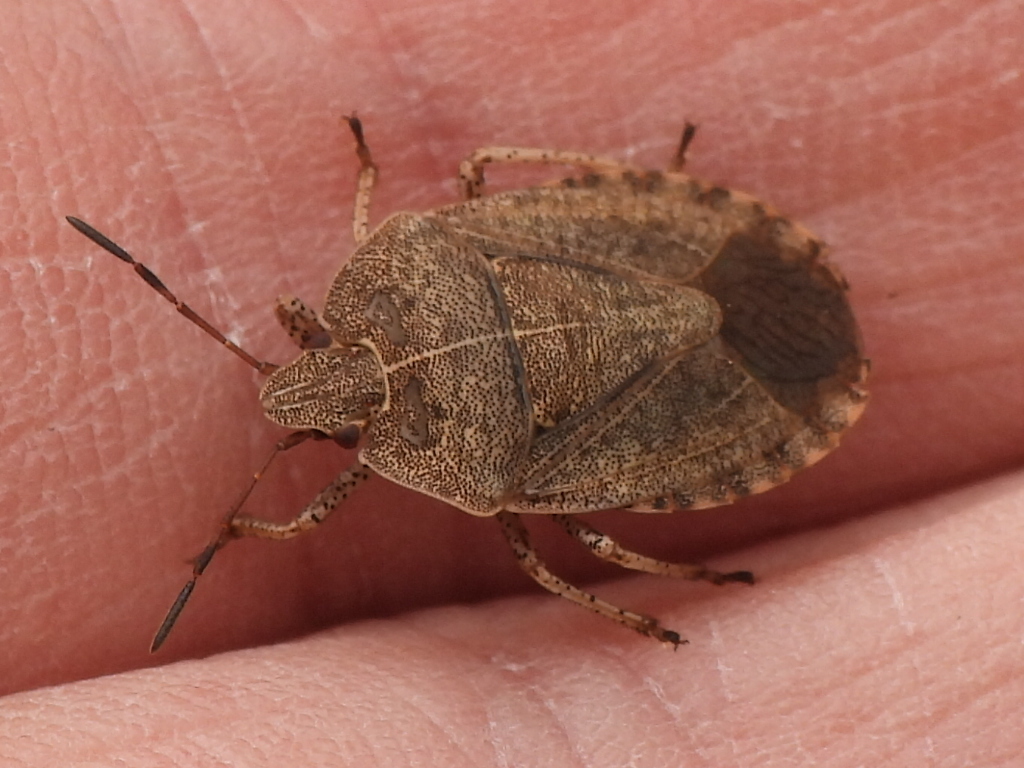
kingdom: Animalia
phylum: Arthropoda
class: Insecta
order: Hemiptera
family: Pentatomidae
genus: Menecles
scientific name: Menecles insertus
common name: Elf shoe stink bug
